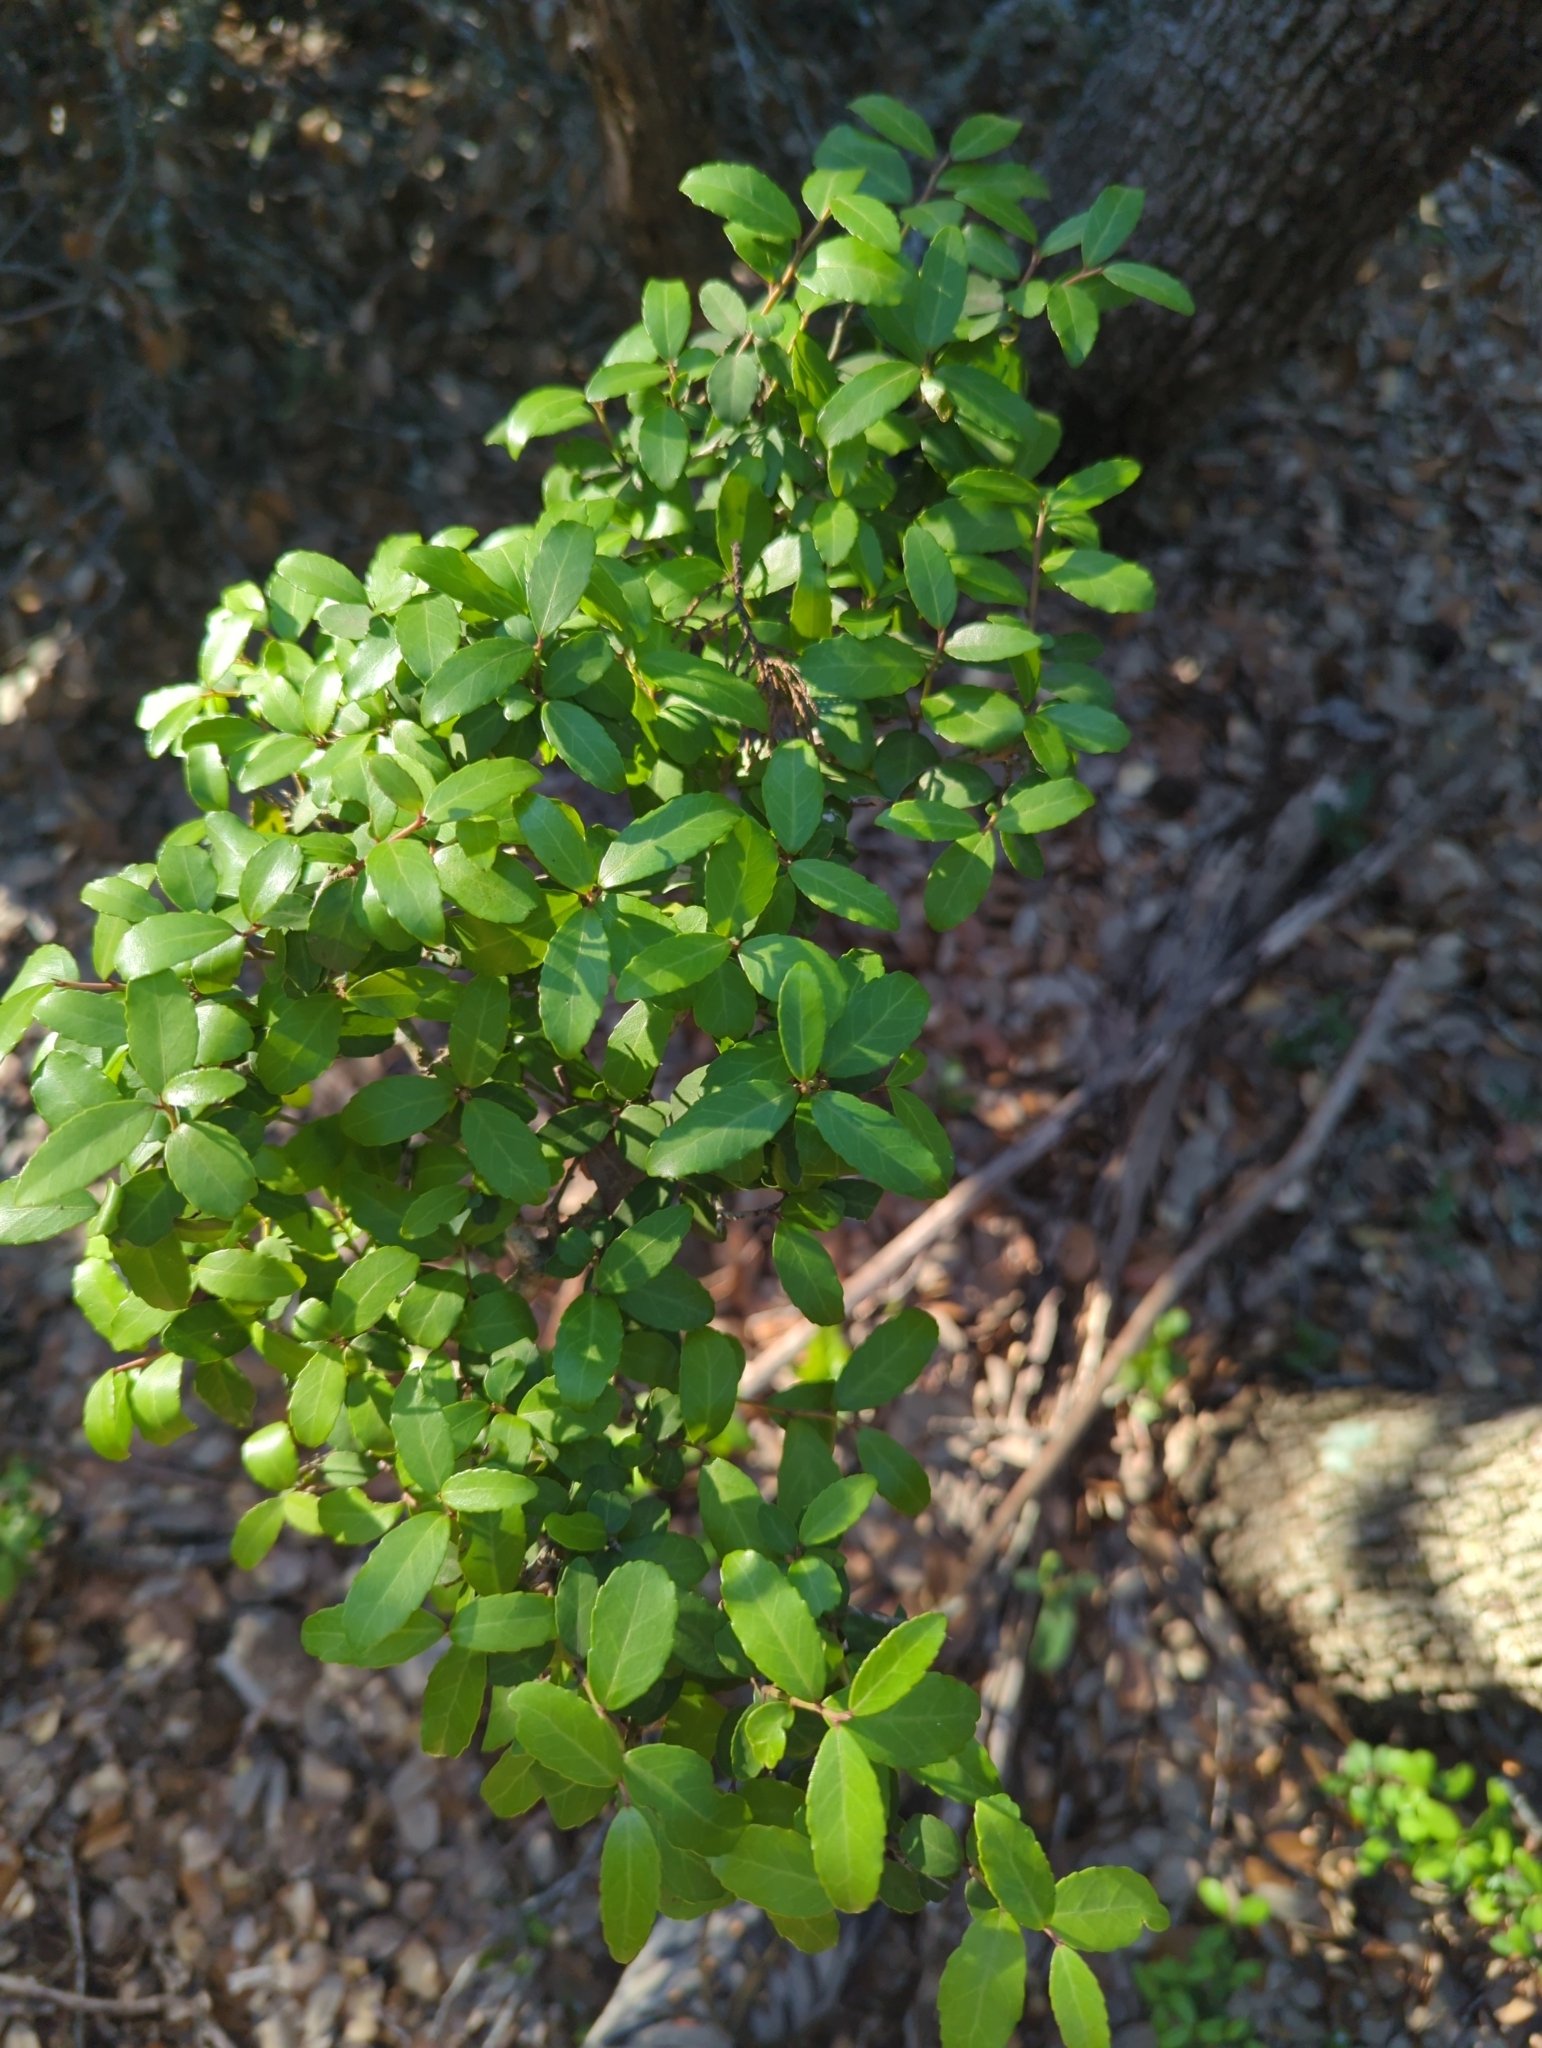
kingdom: Plantae
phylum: Tracheophyta
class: Magnoliopsida
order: Aquifoliales
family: Aquifoliaceae
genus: Ilex
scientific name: Ilex vomitoria
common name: Yaupon holly
